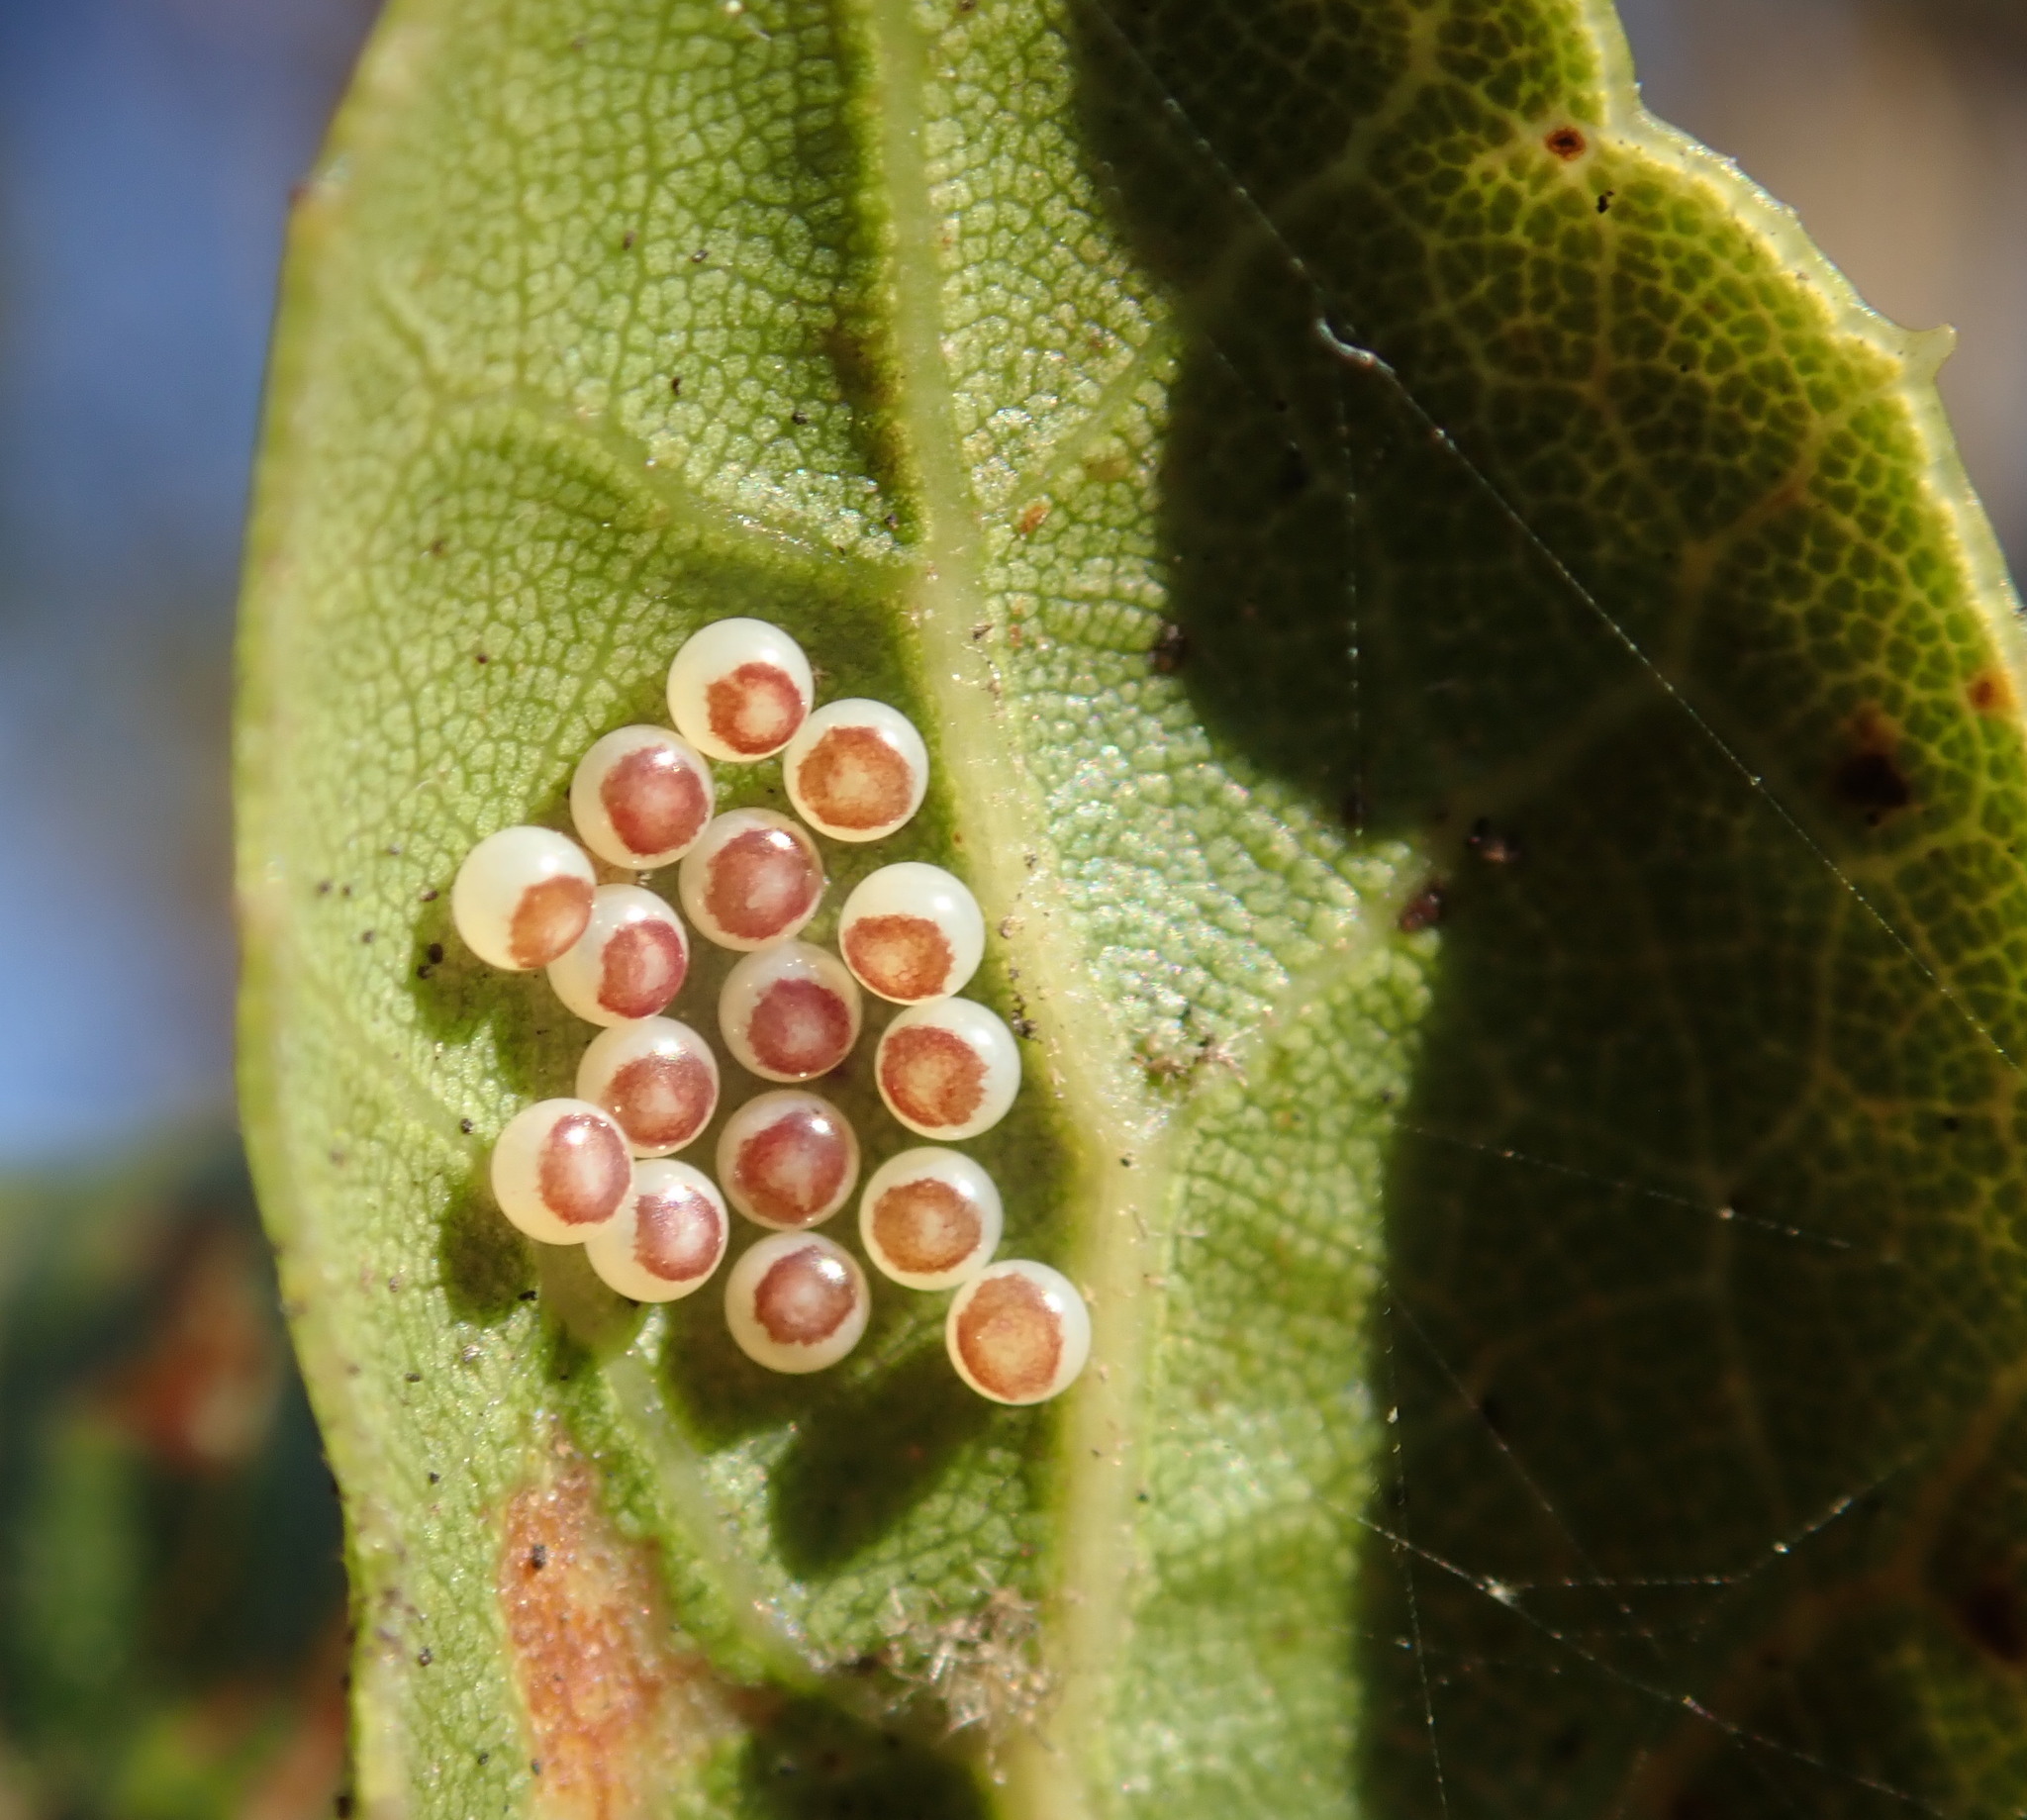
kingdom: Animalia
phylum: Arthropoda
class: Insecta
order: Lepidoptera
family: Notodontidae
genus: Phryganidia
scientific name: Phryganidia californica
